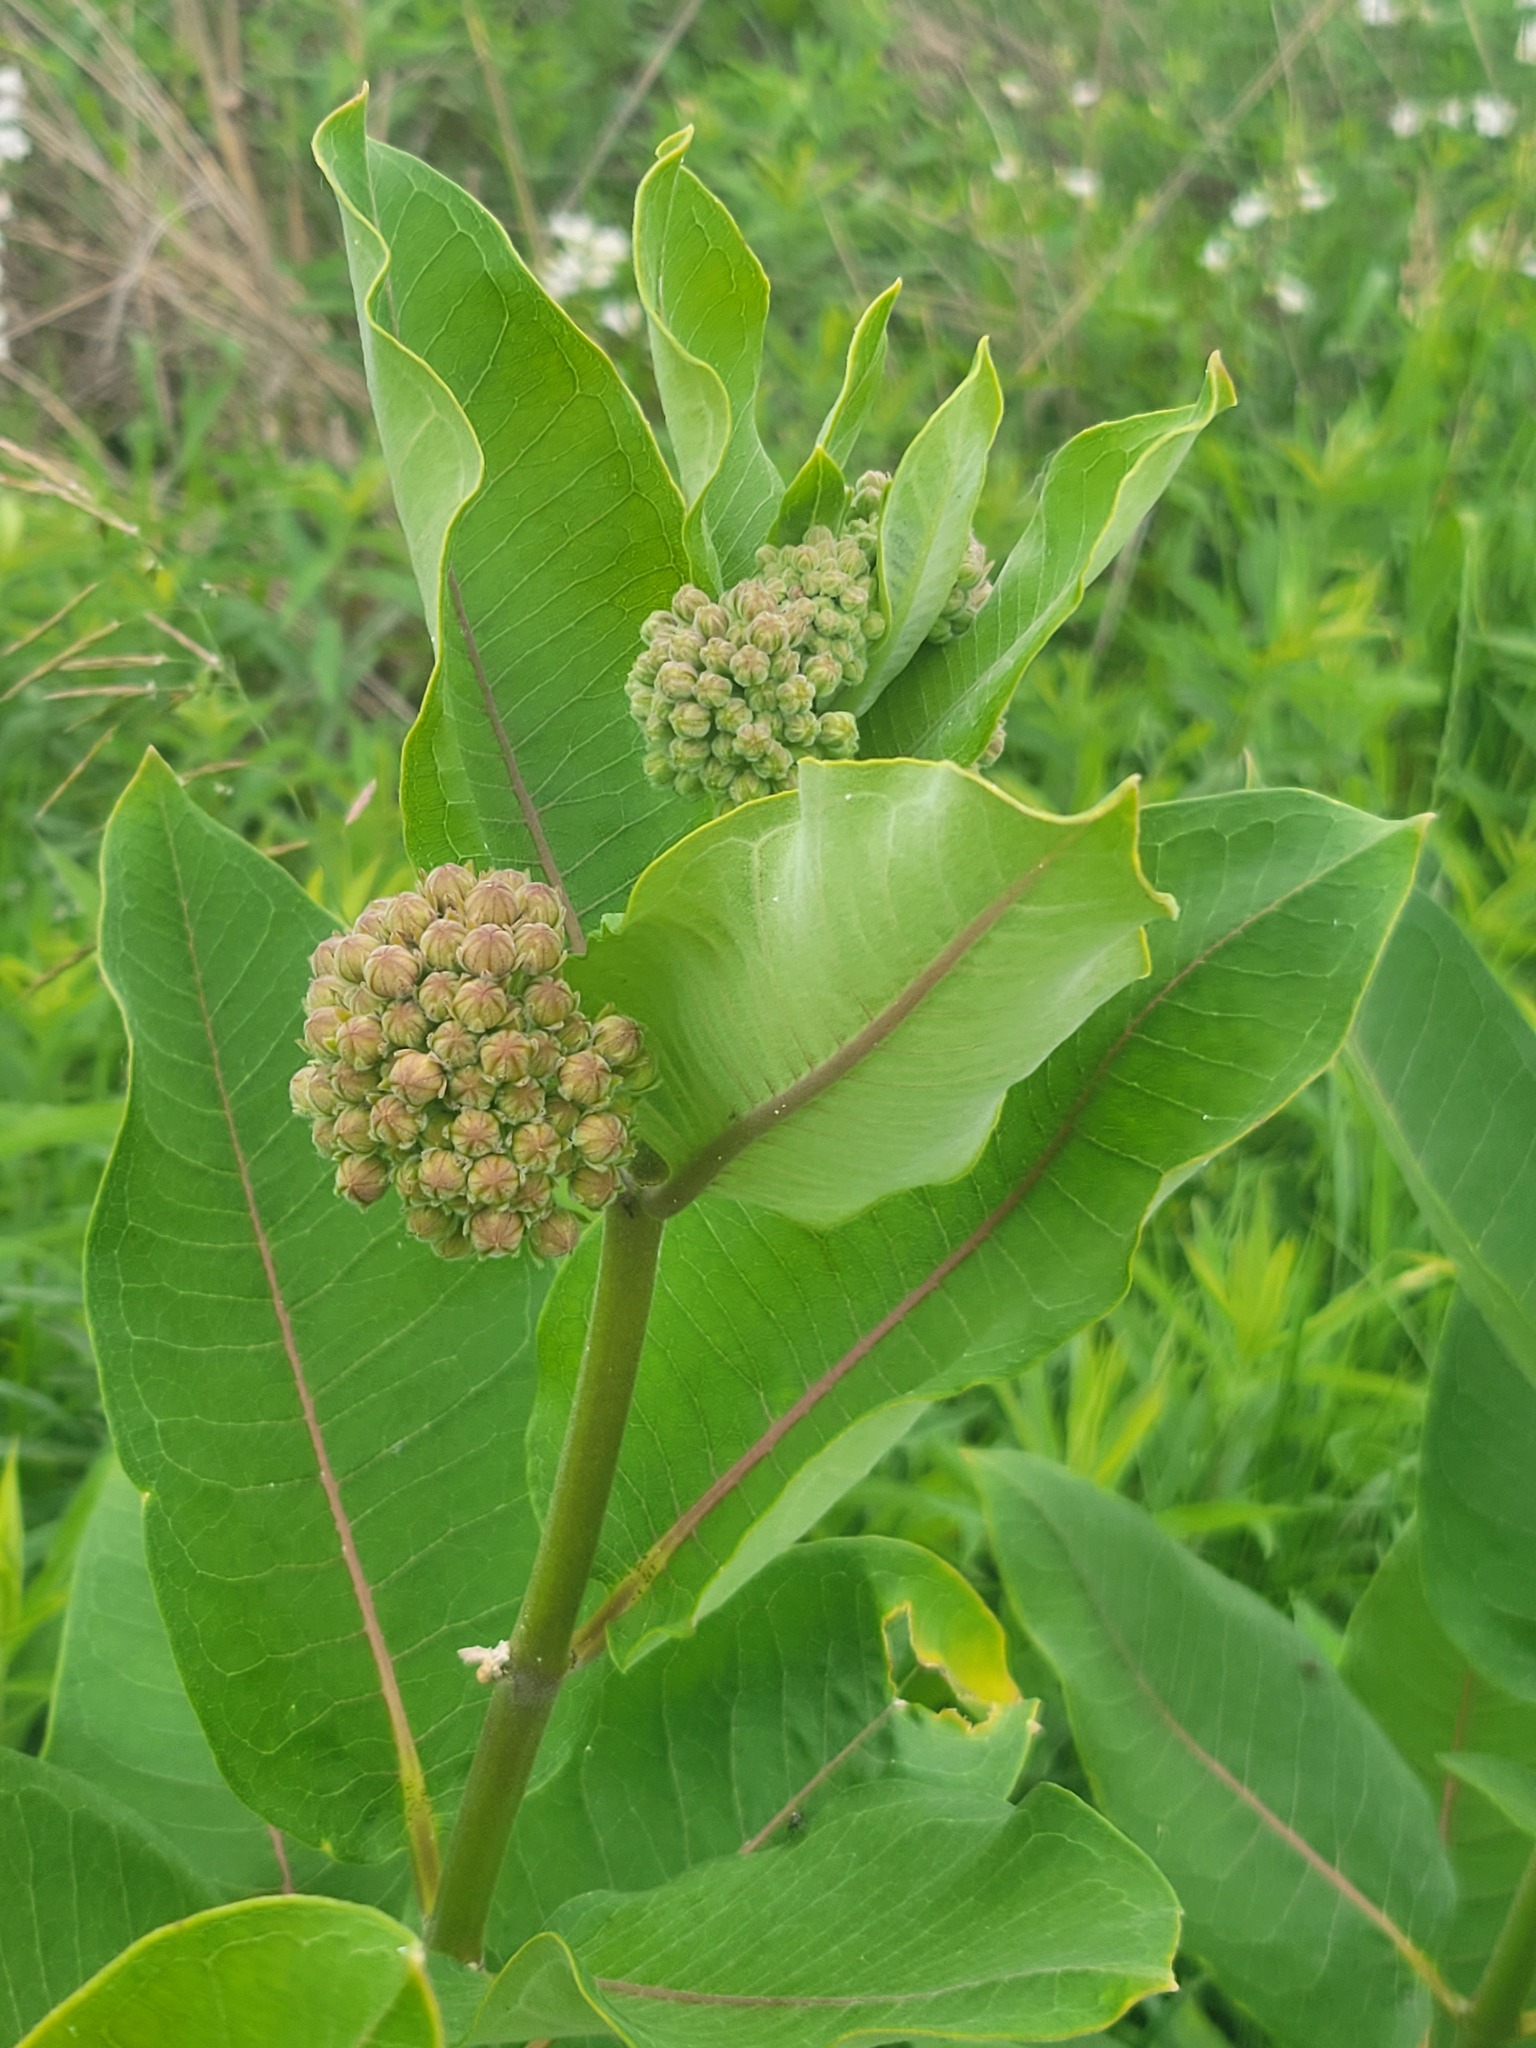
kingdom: Plantae
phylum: Tracheophyta
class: Magnoliopsida
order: Gentianales
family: Apocynaceae
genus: Asclepias
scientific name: Asclepias syriaca
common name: Common milkweed
